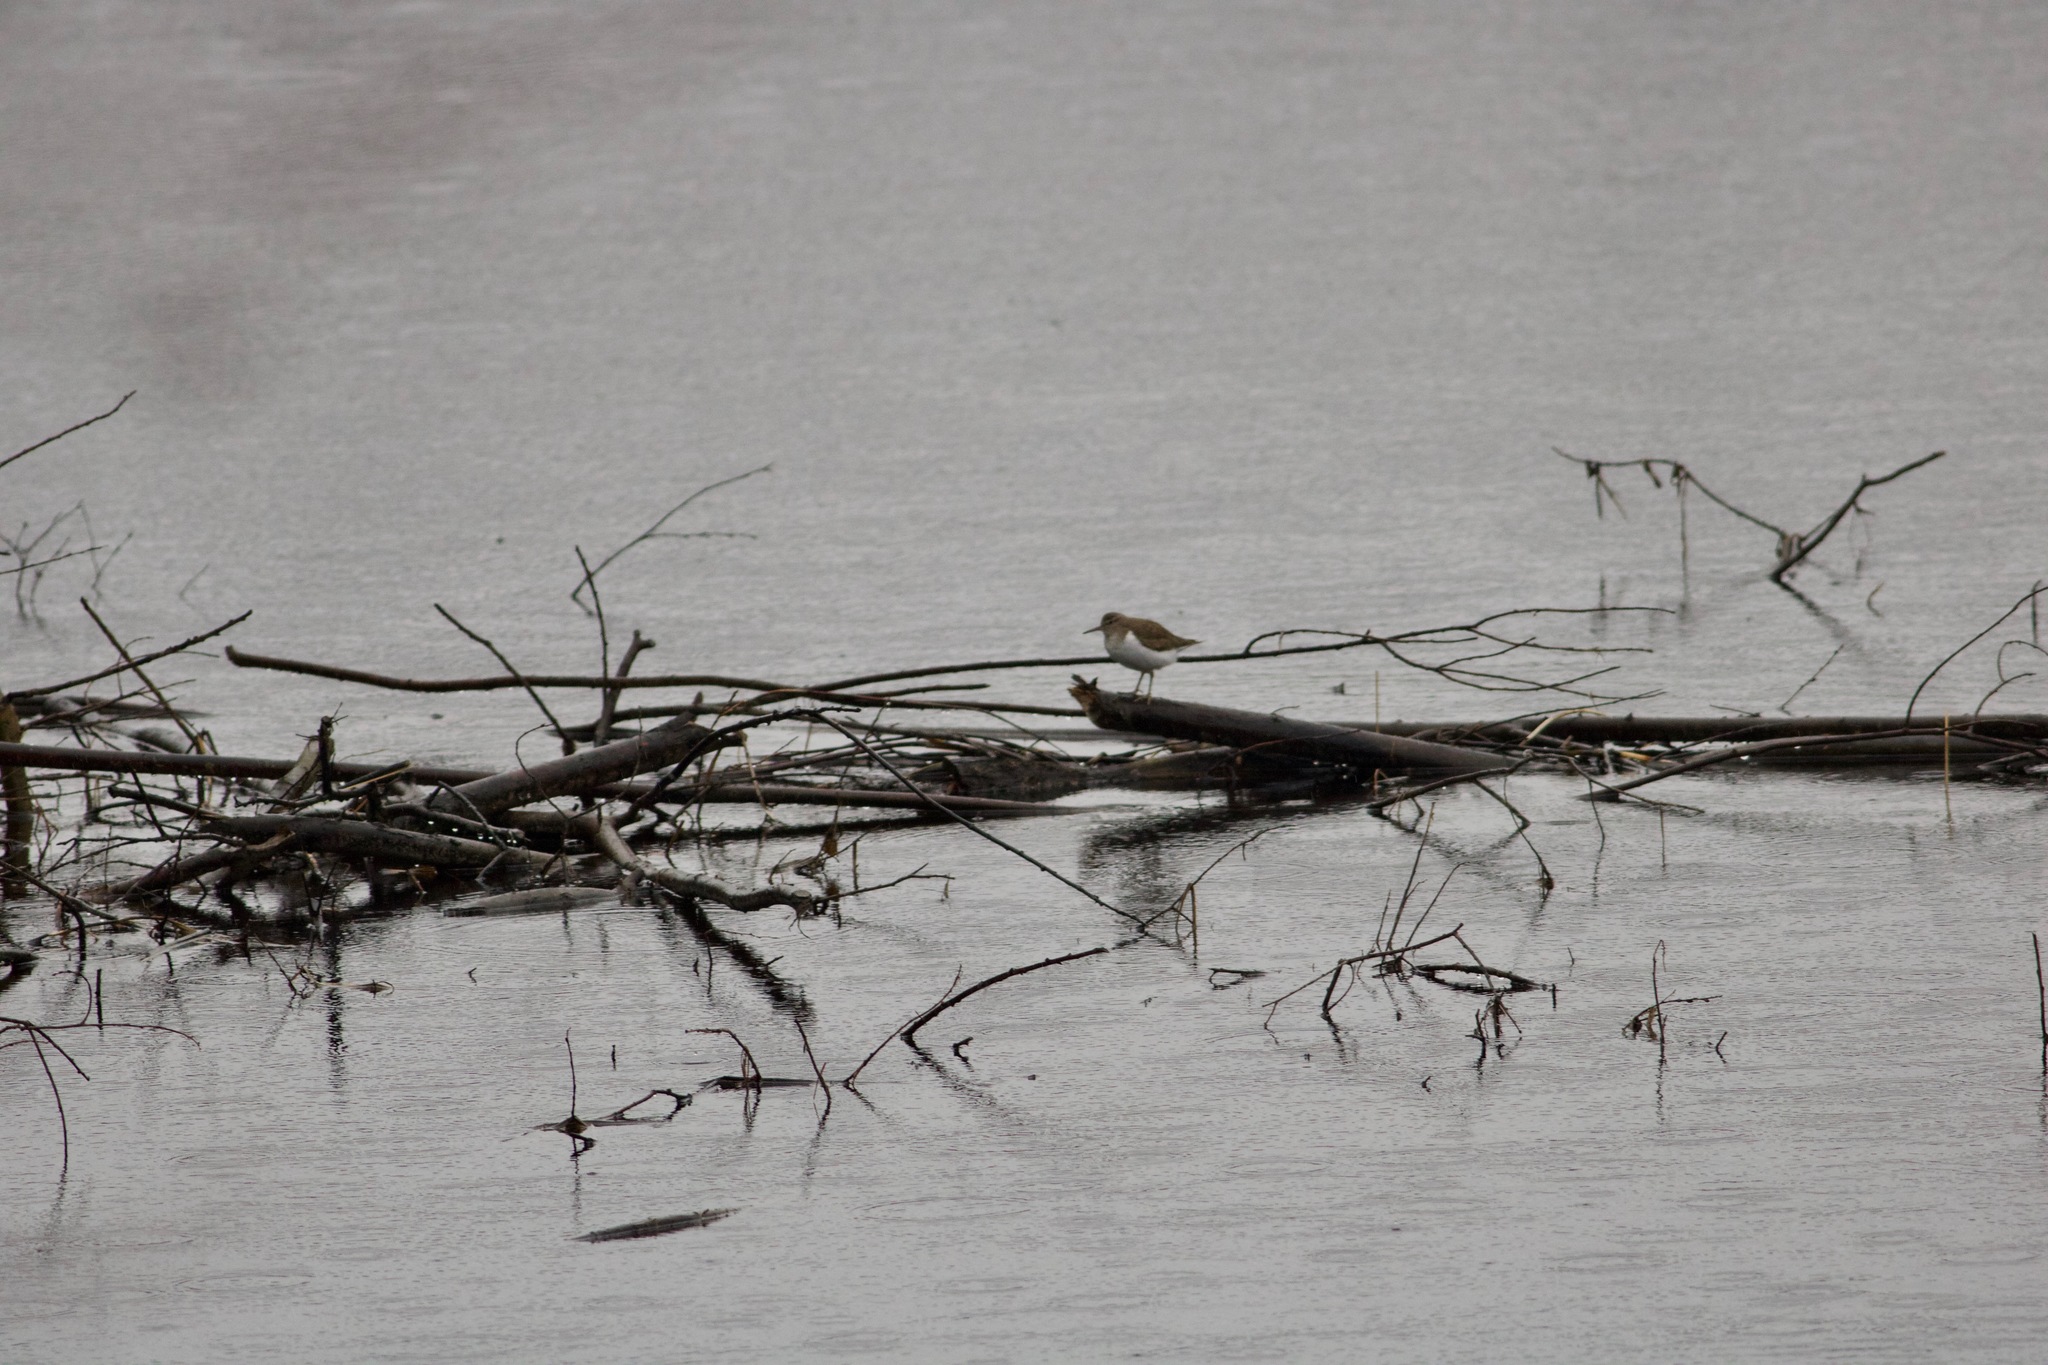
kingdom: Animalia
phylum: Chordata
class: Aves
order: Charadriiformes
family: Scolopacidae
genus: Actitis
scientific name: Actitis hypoleucos
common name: Common sandpiper
